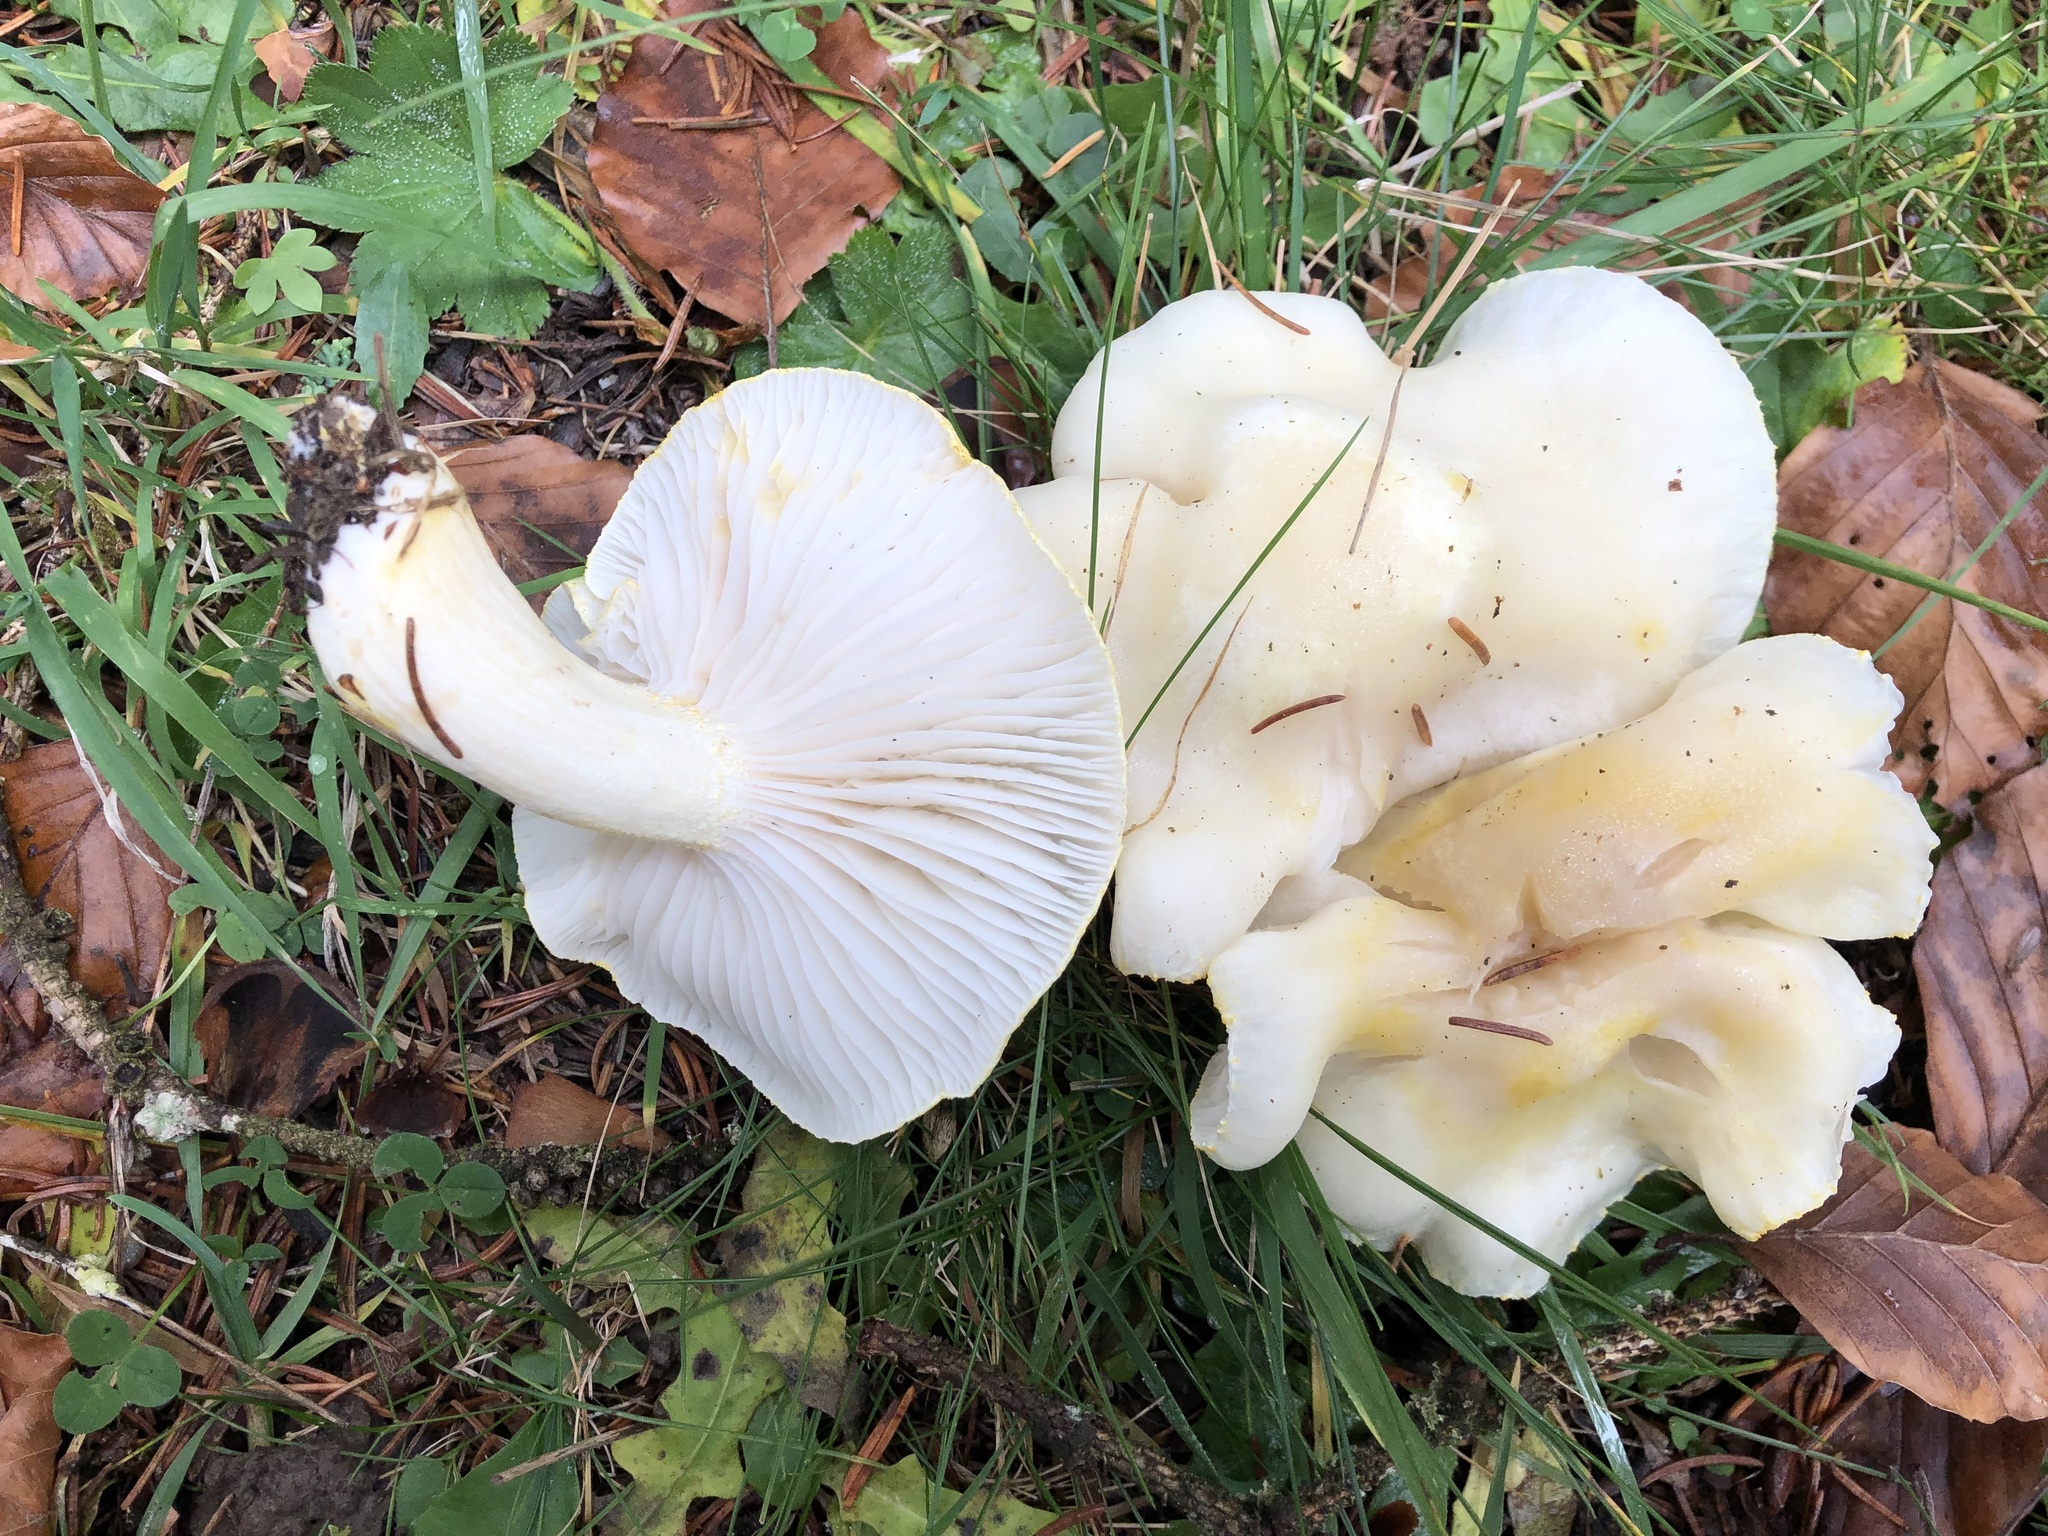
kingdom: Fungi
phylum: Basidiomycota
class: Agaricomycetes
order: Agaricales
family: Hygrophoraceae
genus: Hygrophorus
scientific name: Hygrophorus chrysodon
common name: Gold flecked woodwax
